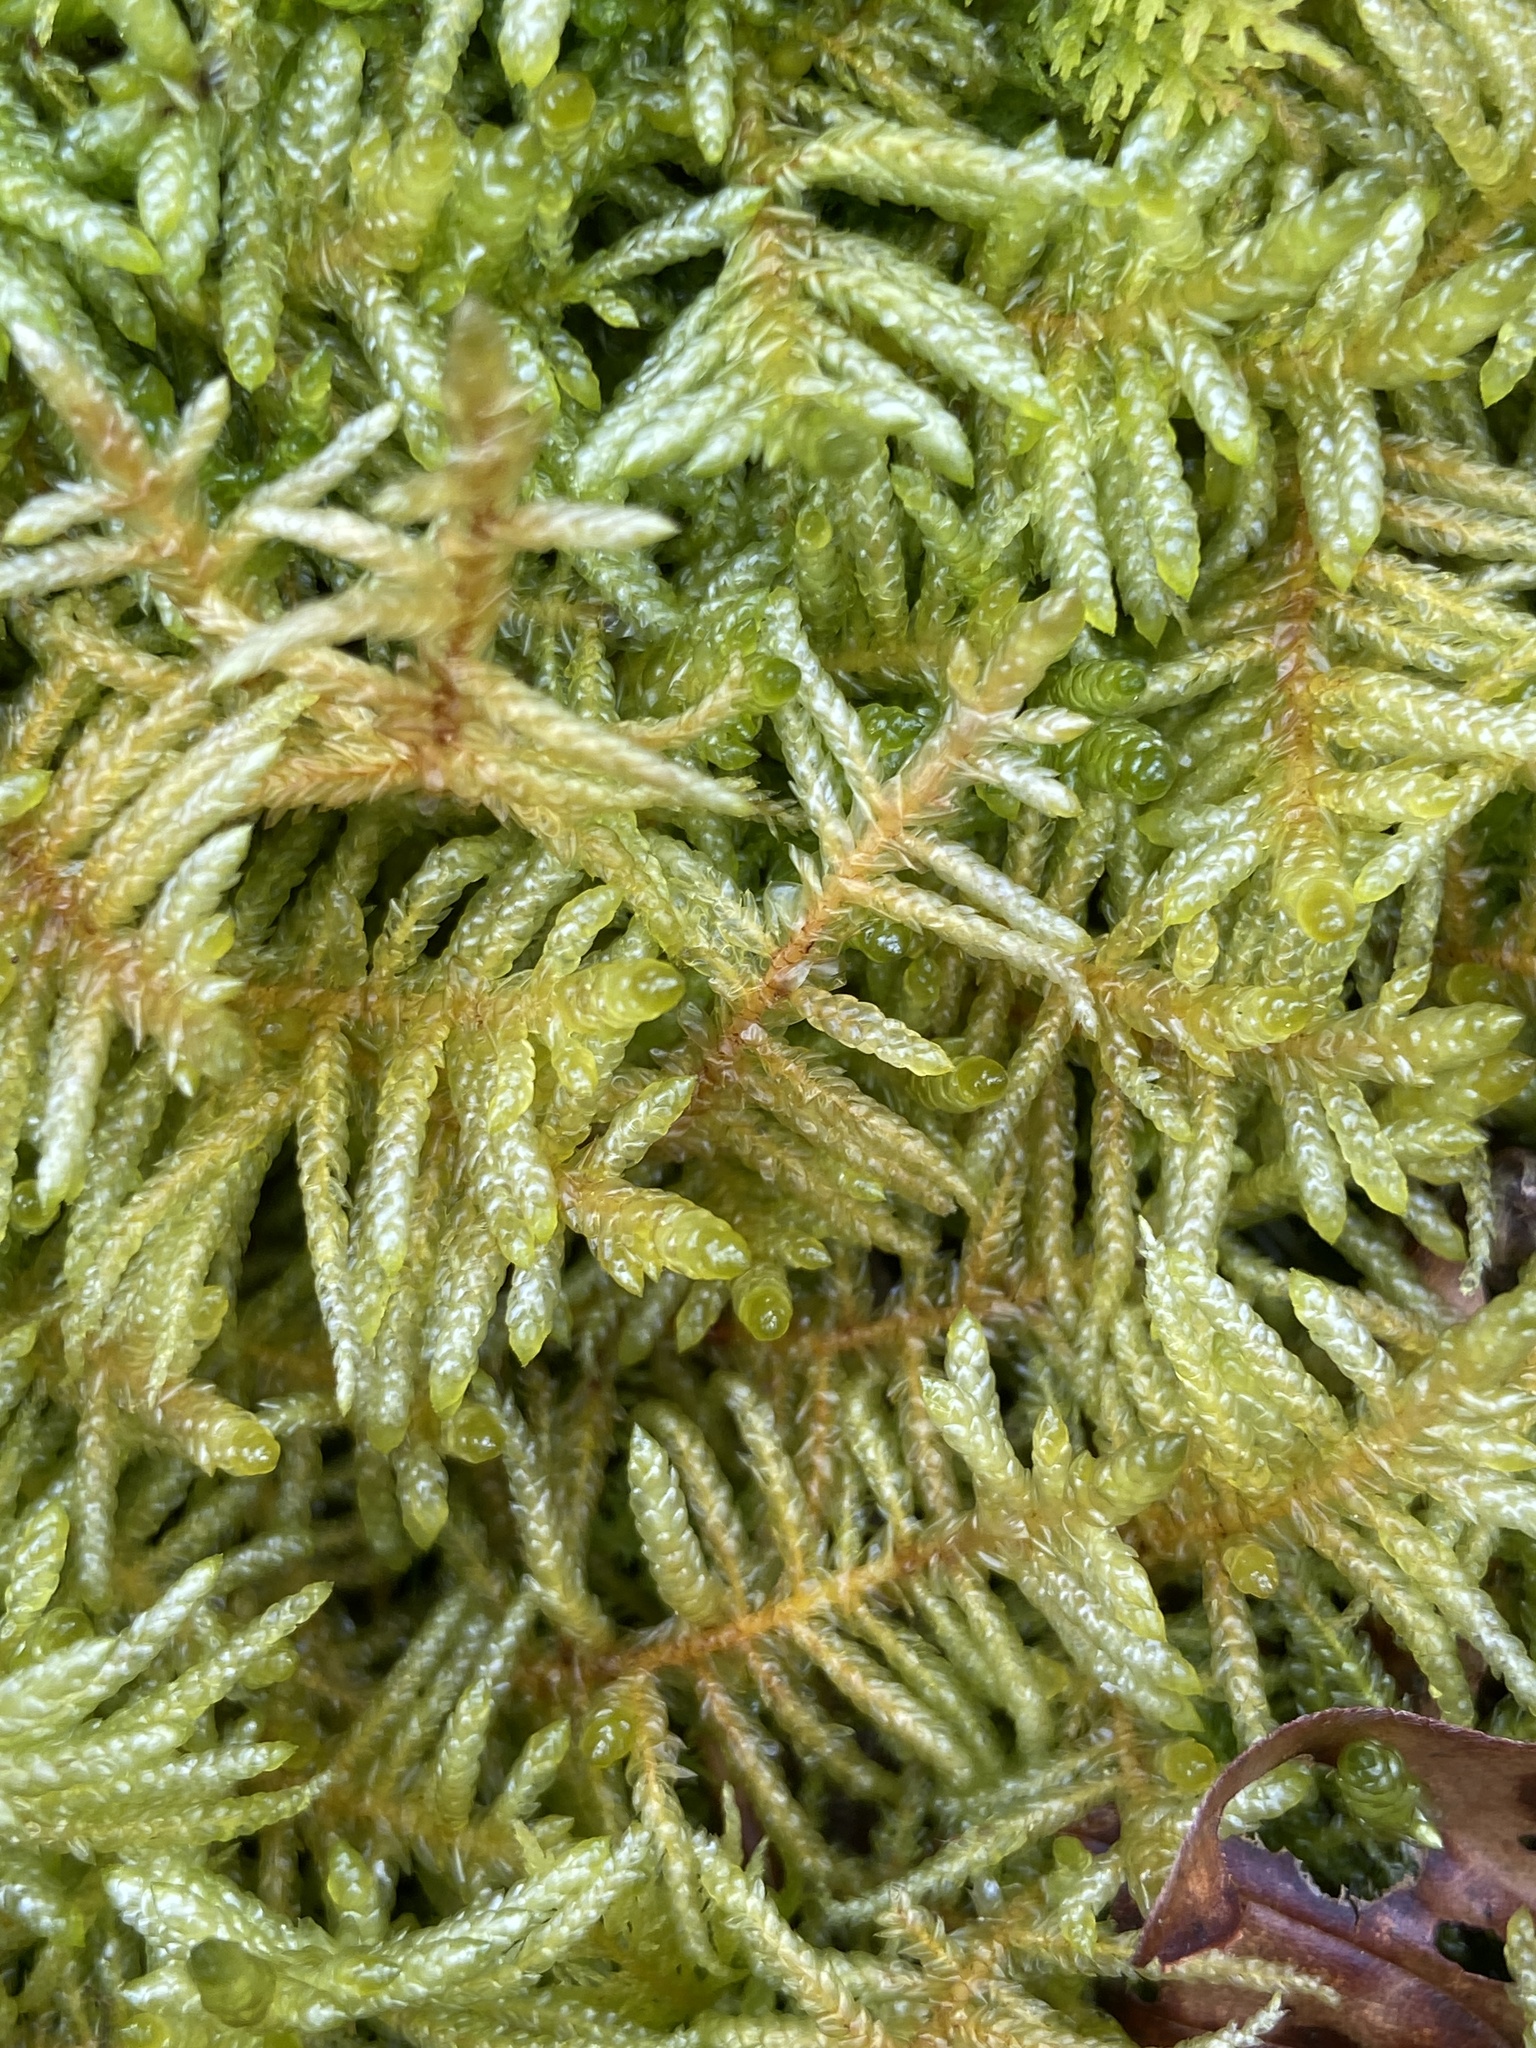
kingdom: Plantae
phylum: Bryophyta
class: Bryopsida
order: Hypnales
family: Brachytheciaceae
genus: Pseudoscleropodium
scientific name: Pseudoscleropodium purum
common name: Neat feather-moss
